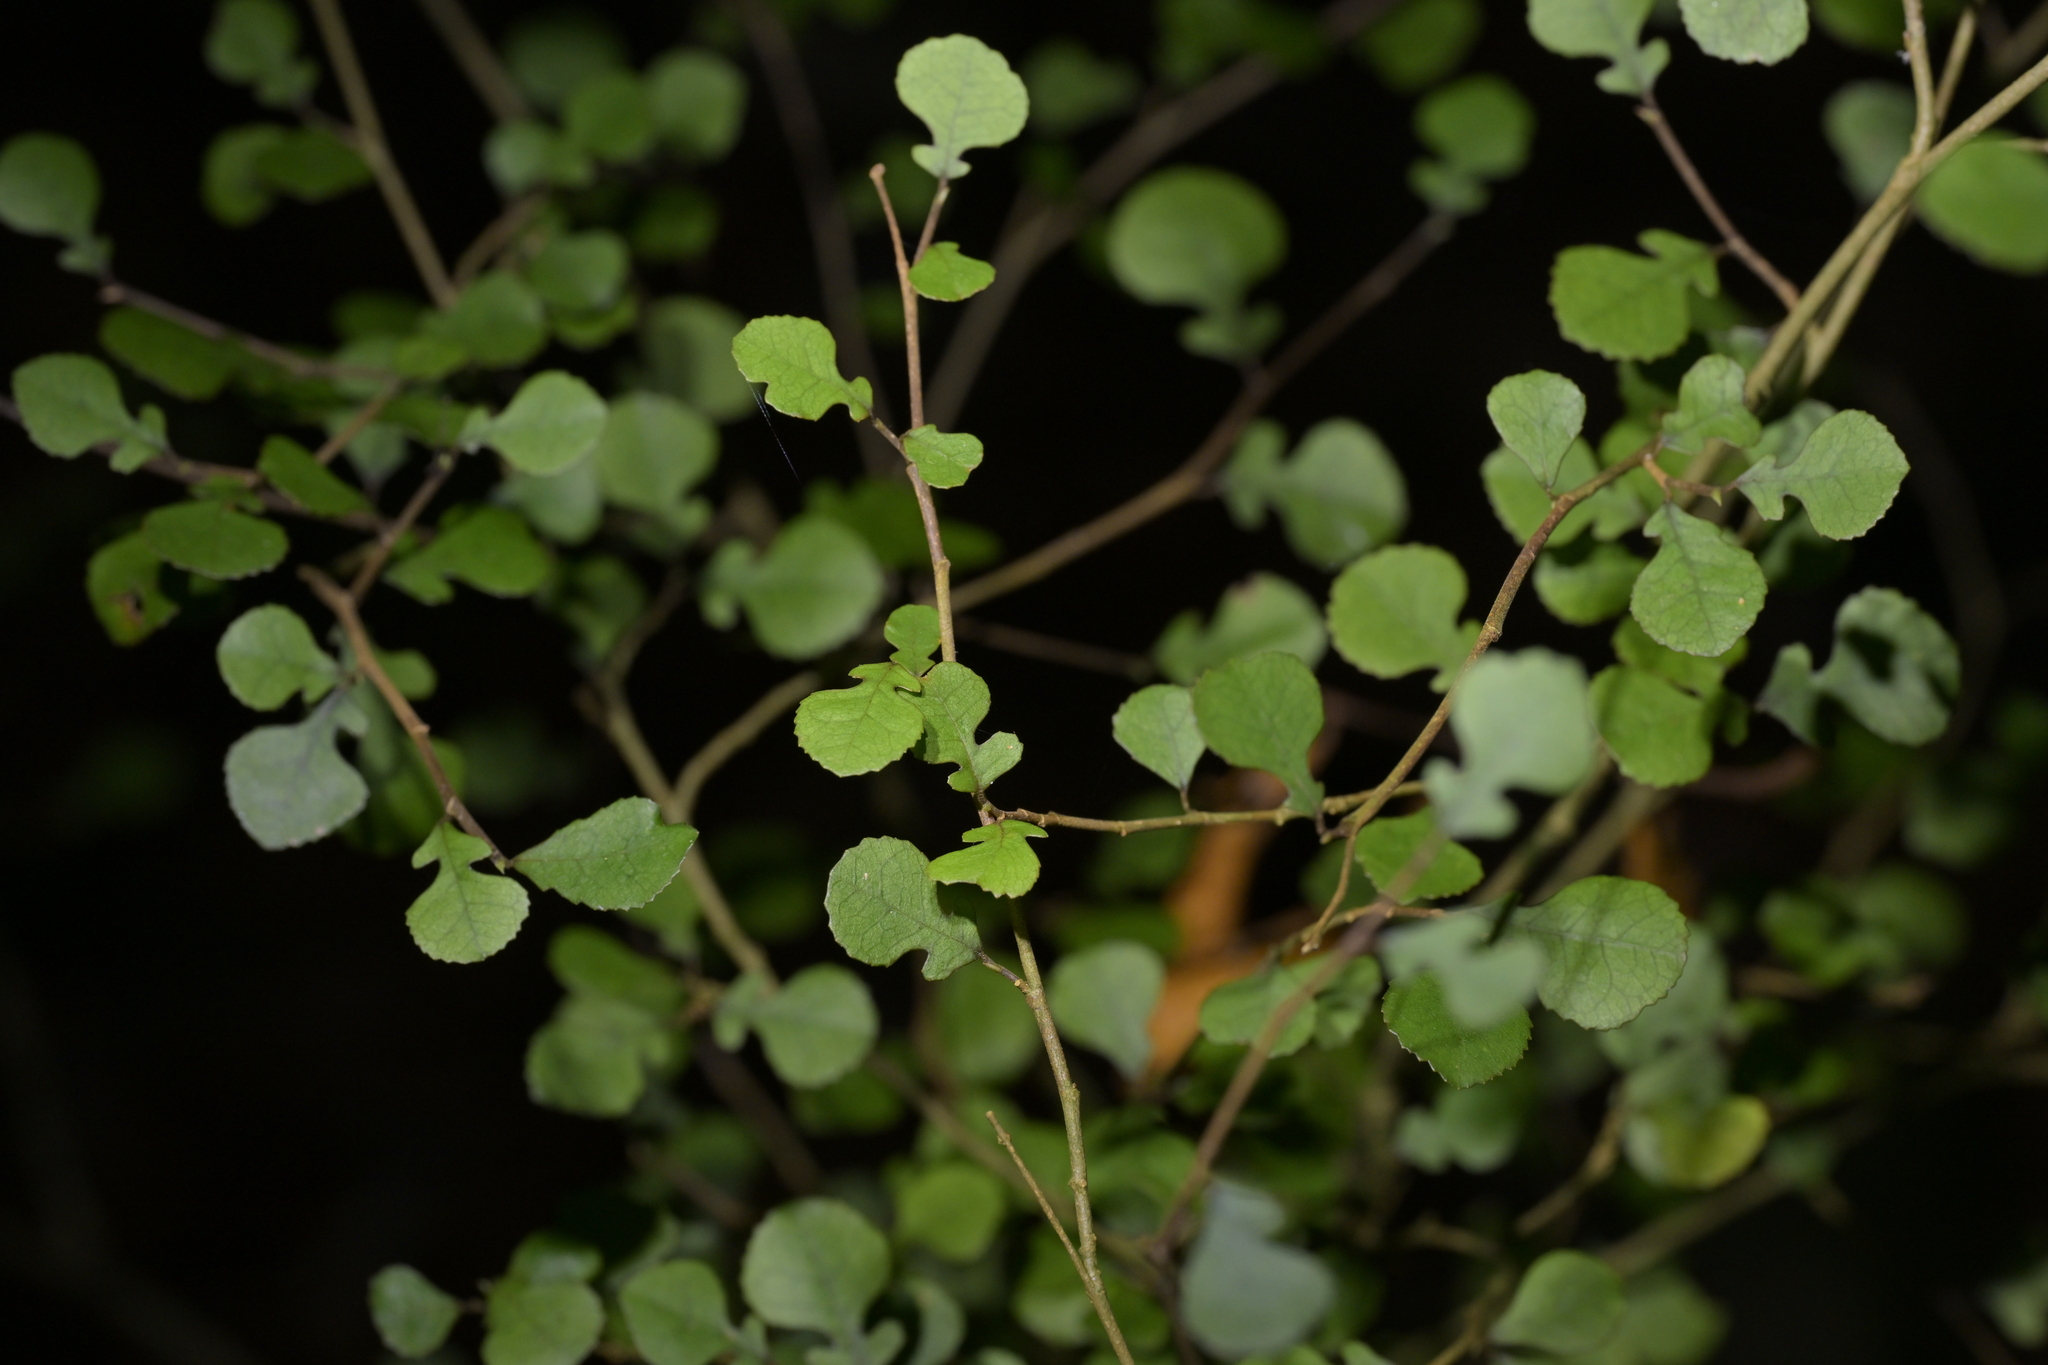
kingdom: Plantae
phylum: Tracheophyta
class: Magnoliopsida
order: Rosales
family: Moraceae
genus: Paratrophis
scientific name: Paratrophis microphylla
